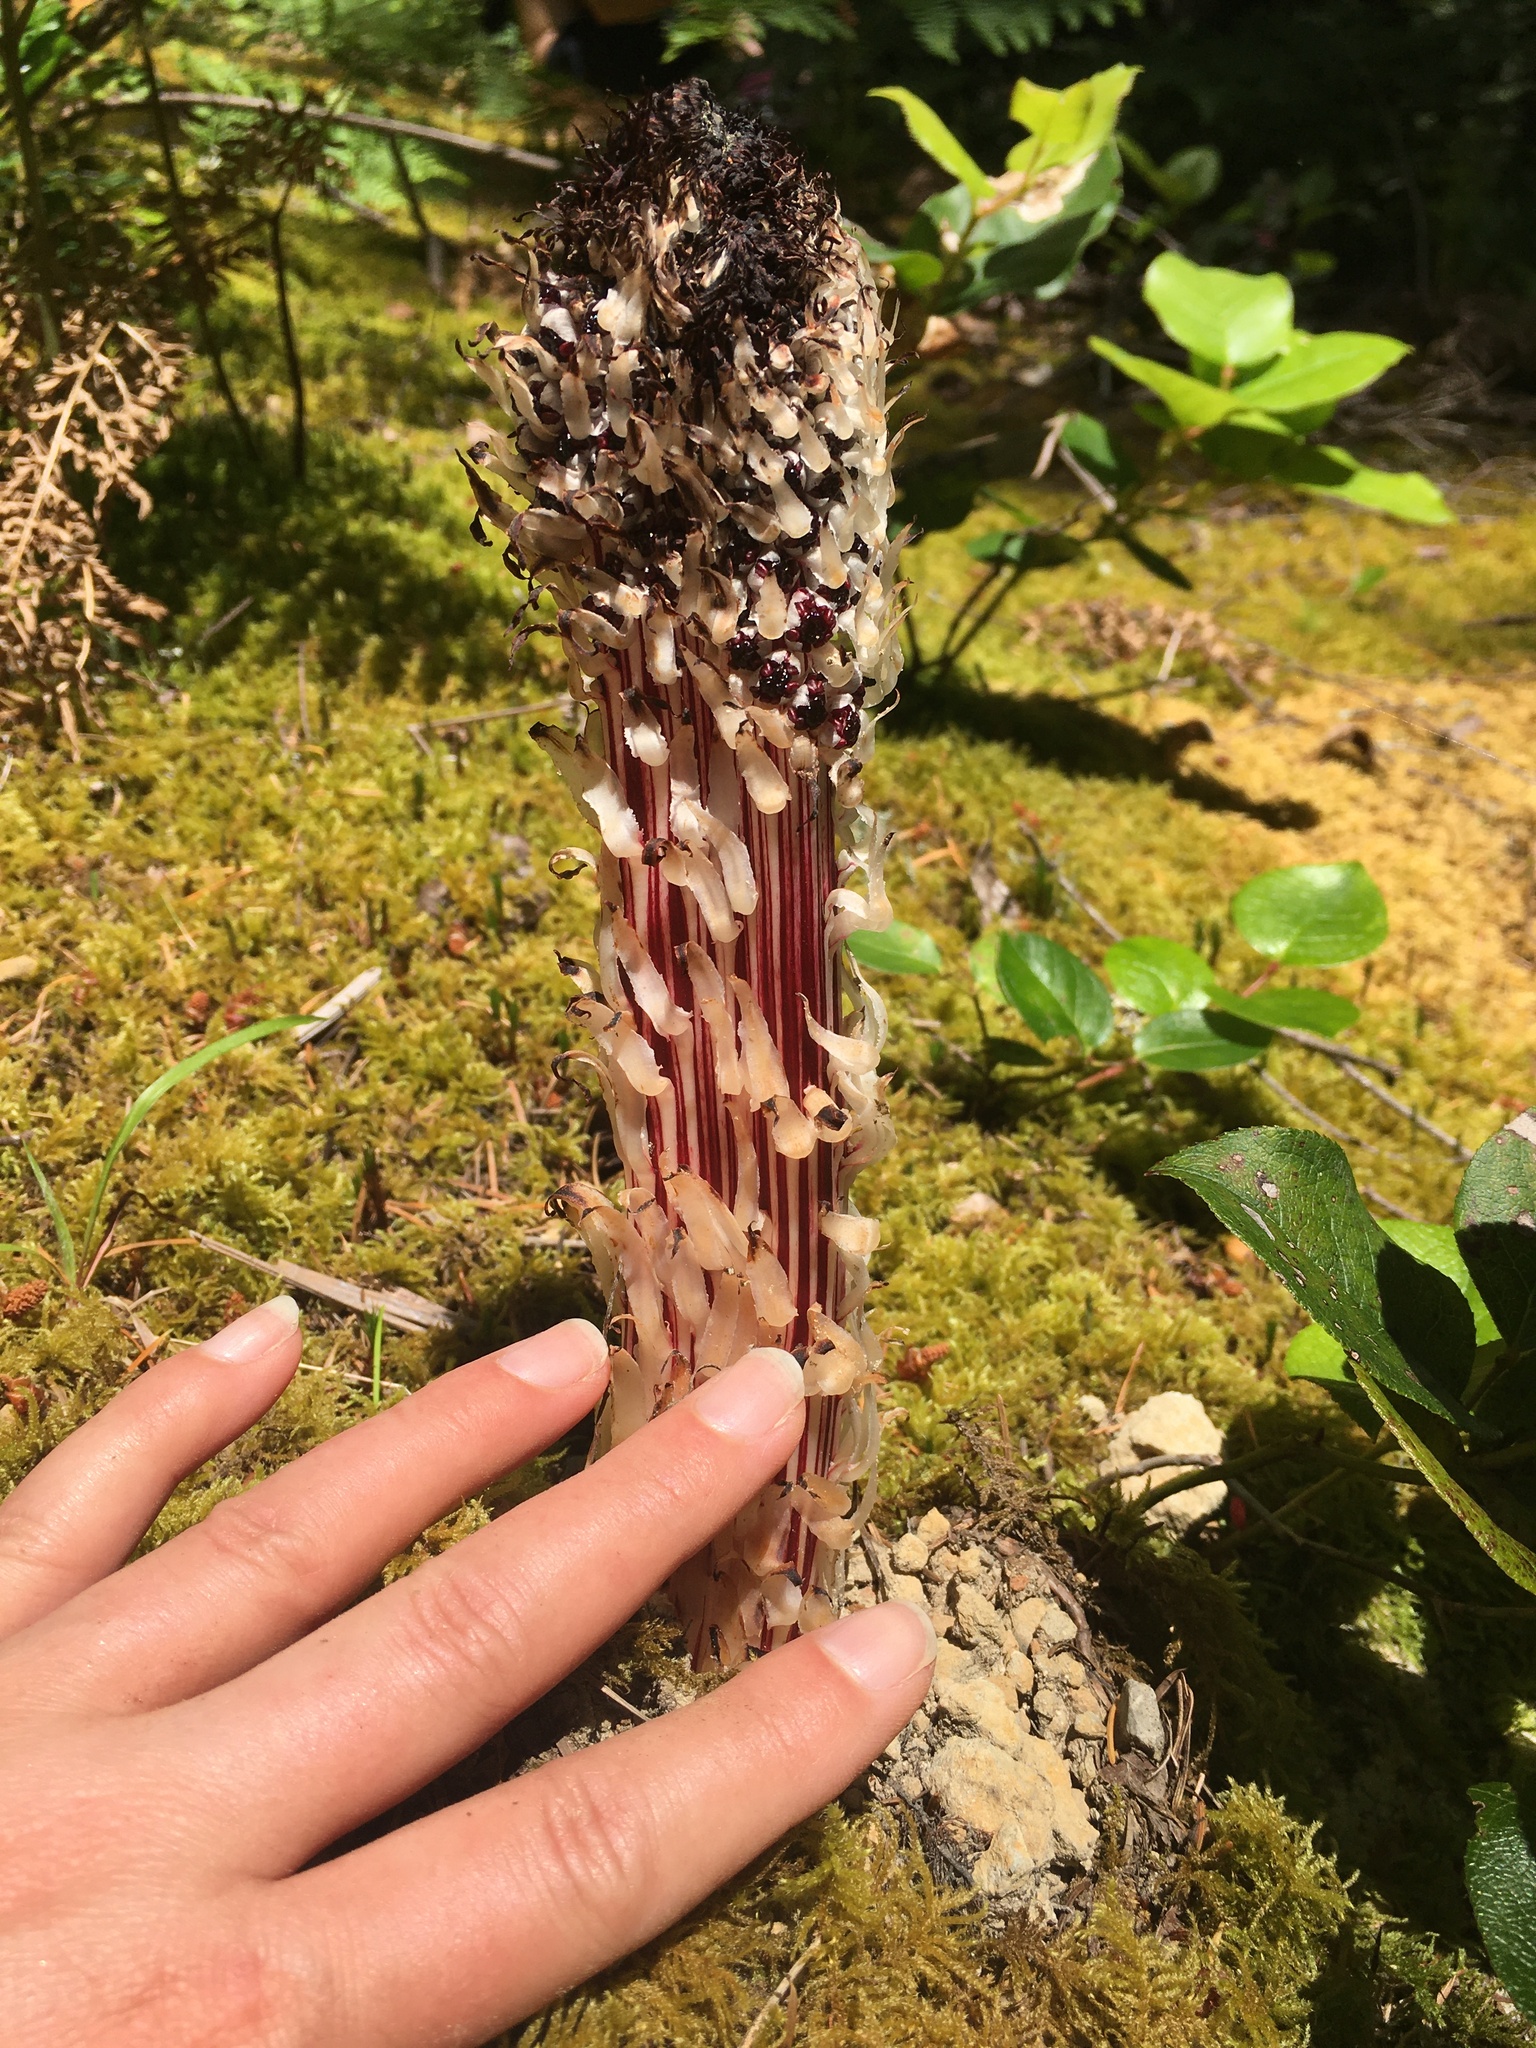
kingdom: Plantae
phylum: Tracheophyta
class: Magnoliopsida
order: Ericales
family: Ericaceae
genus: Allotropa
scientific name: Allotropa virgata
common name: Candy-striped allotropa
